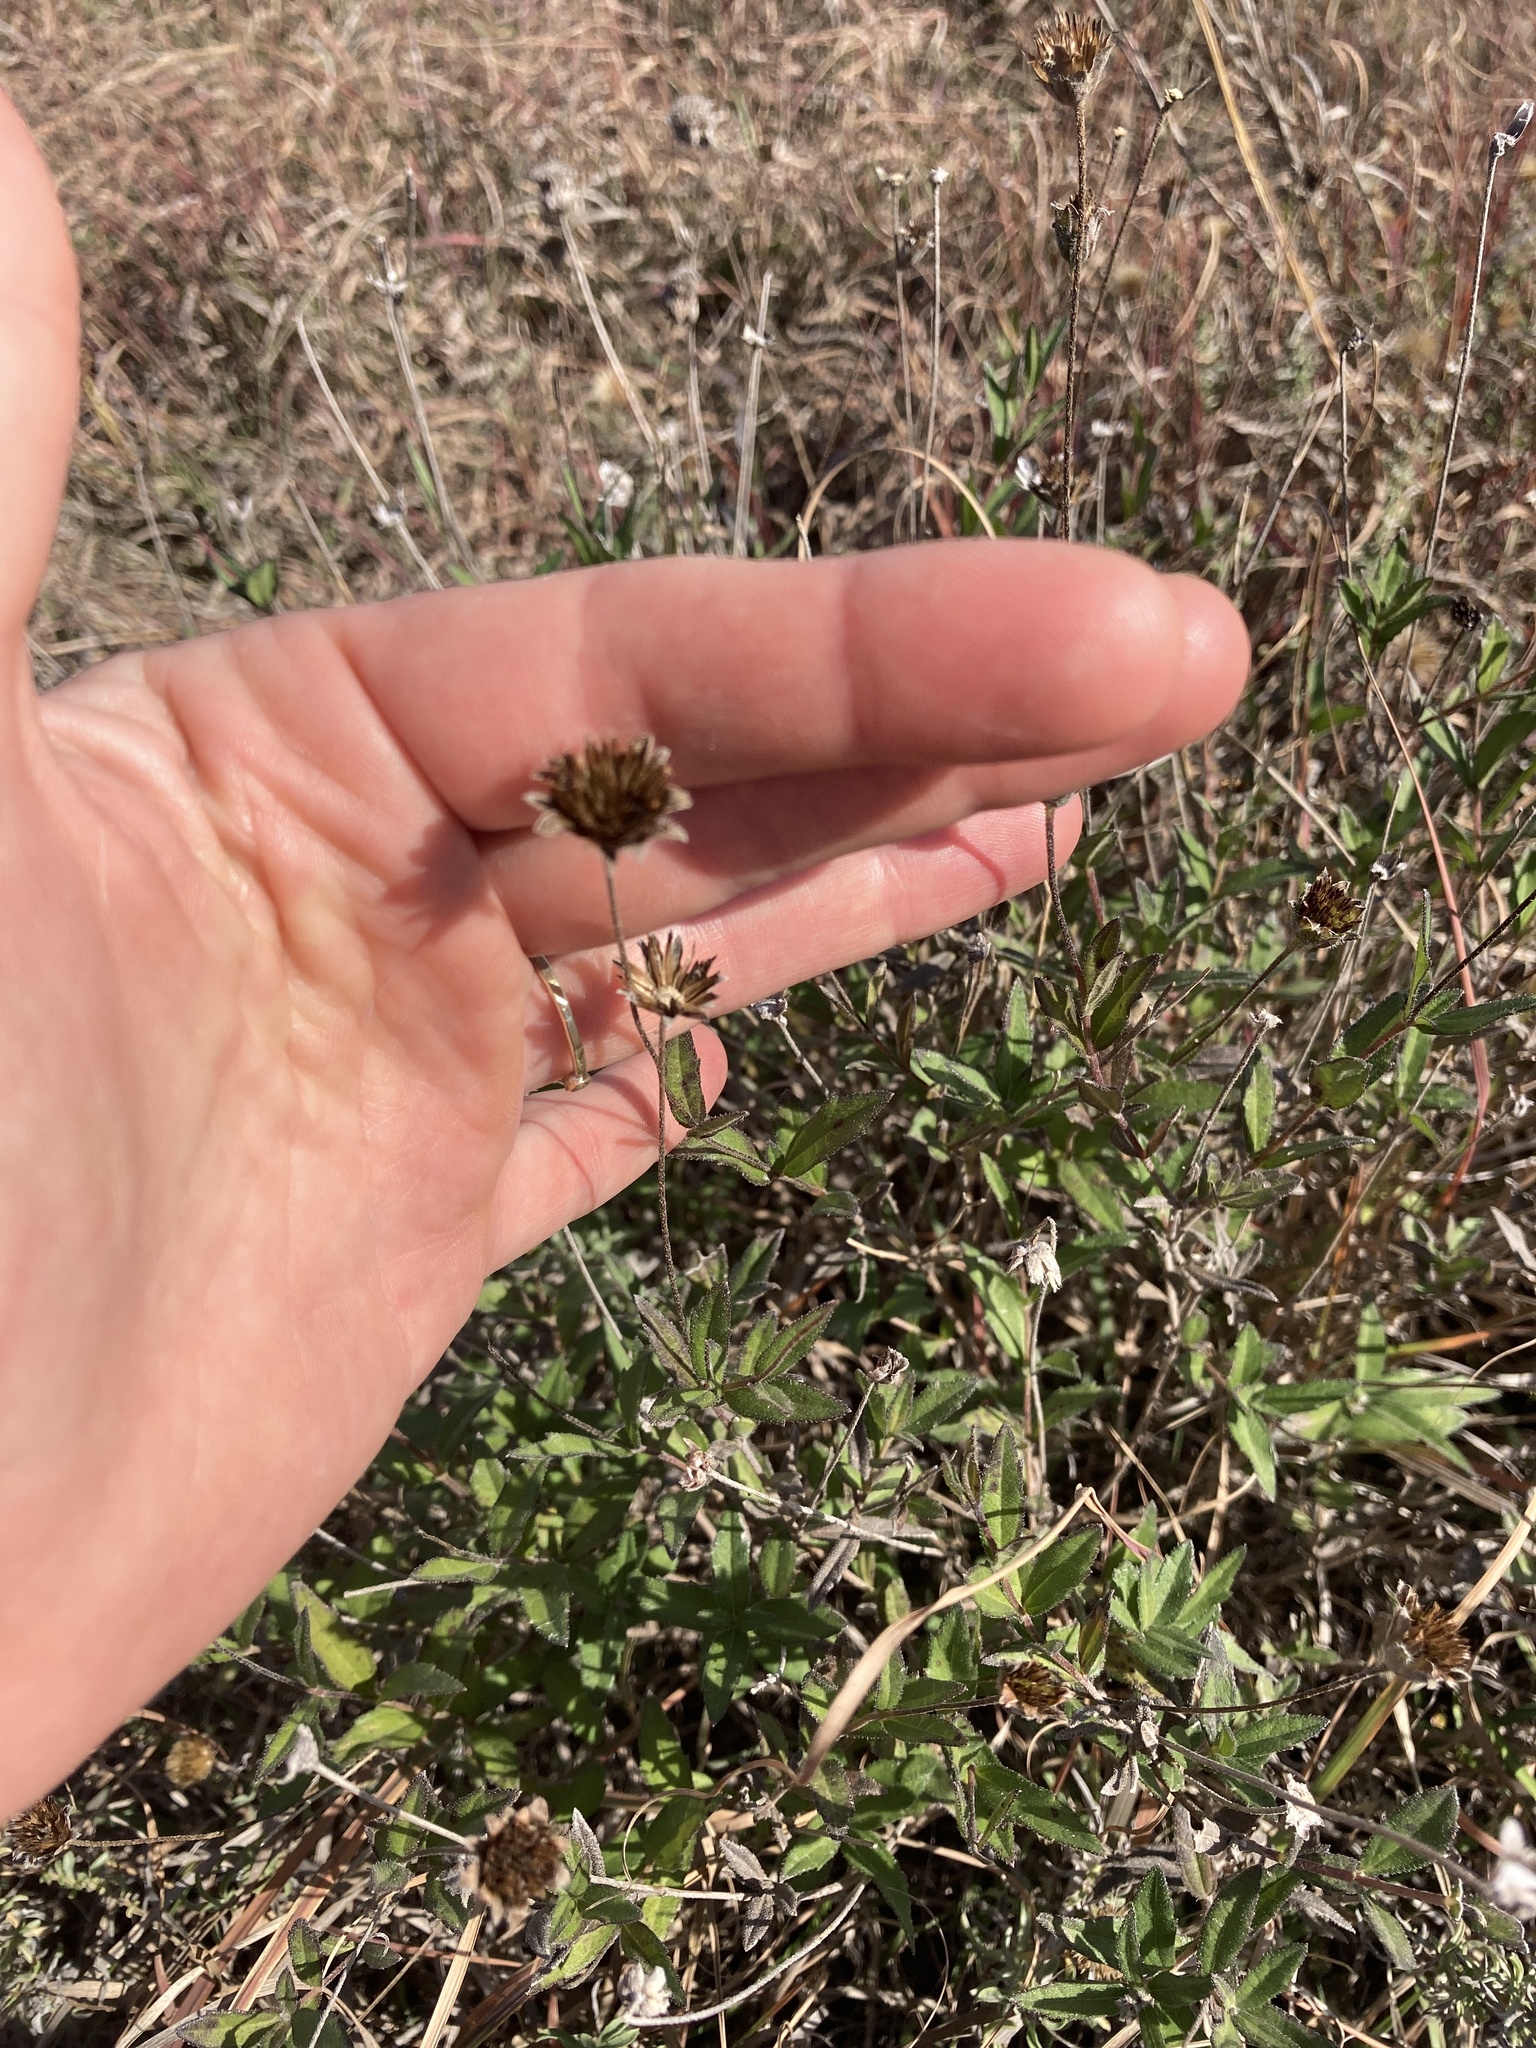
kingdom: Plantae
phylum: Tracheophyta
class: Magnoliopsida
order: Asterales
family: Asteraceae
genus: Wedelia
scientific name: Wedelia acapulcensis
